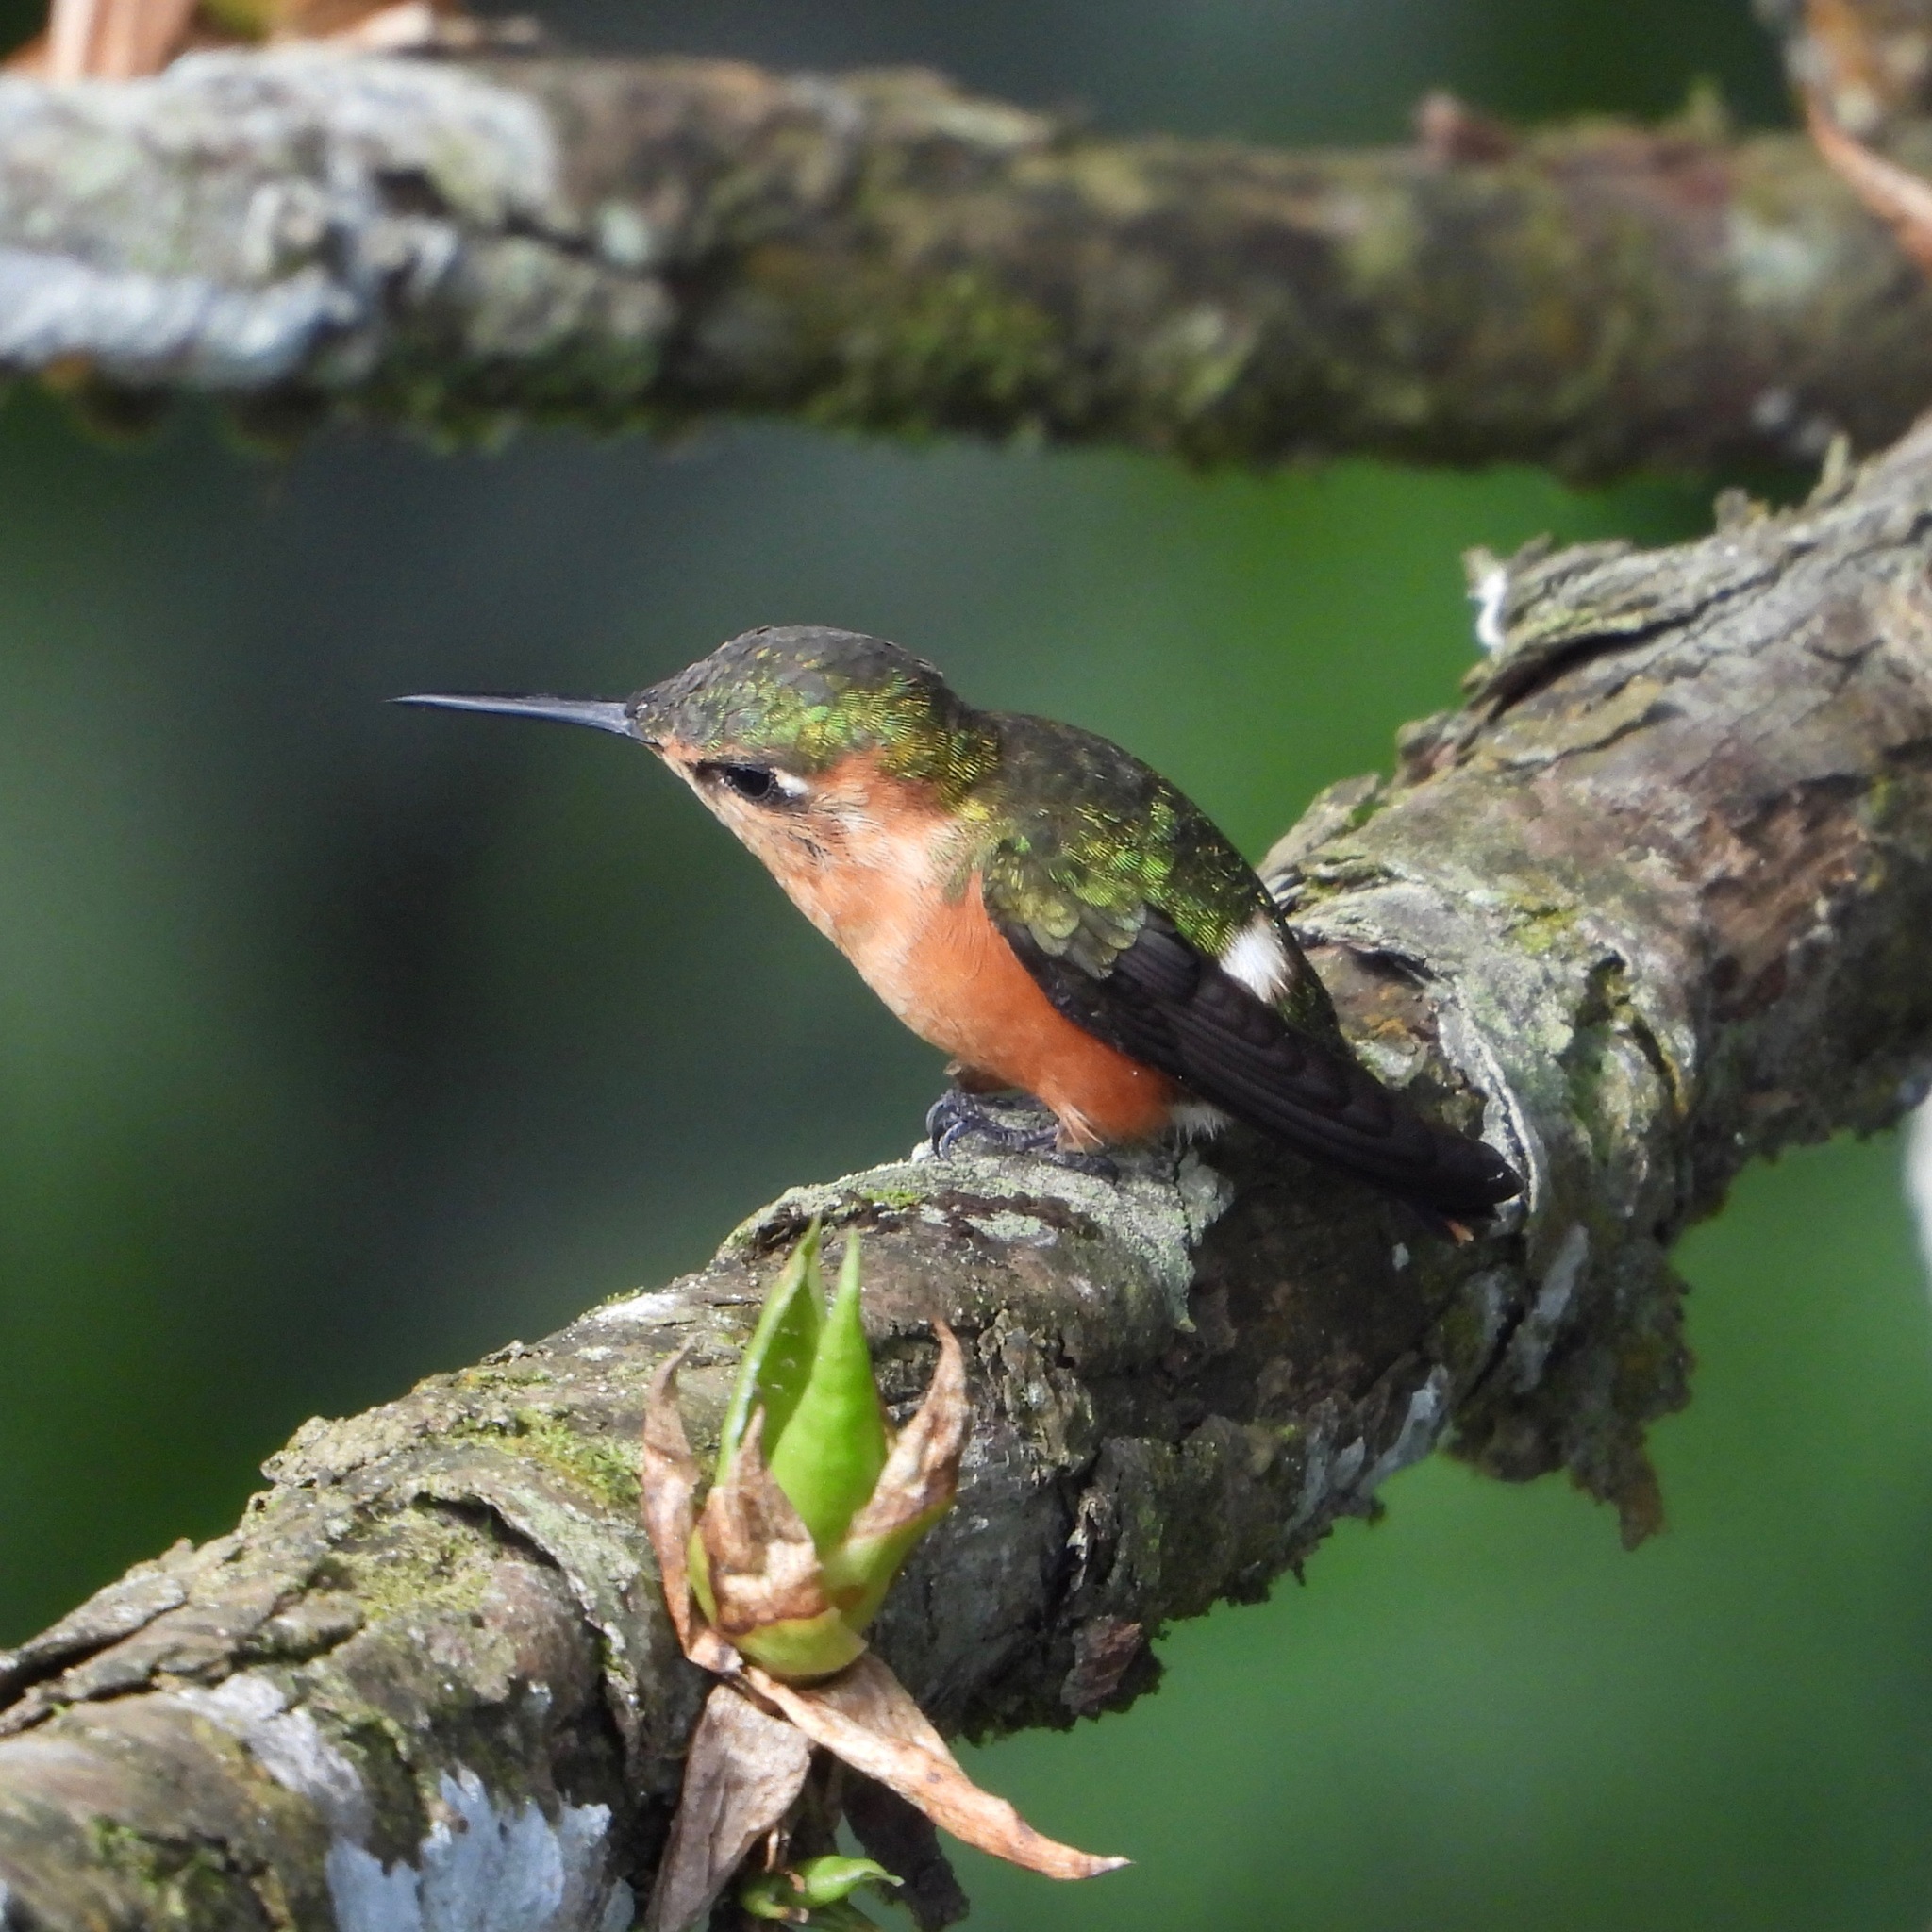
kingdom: Animalia
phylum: Chordata
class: Aves
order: Apodiformes
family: Trochilidae
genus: Tilmatura
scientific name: Tilmatura dupontii
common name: Sparkling-tailed woodstar
